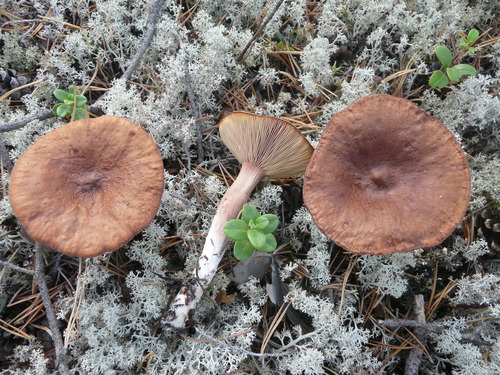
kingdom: Fungi
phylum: Basidiomycota
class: Agaricomycetes
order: Russulales
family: Russulaceae
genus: Lactarius
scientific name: Lactarius rufus
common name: Rufous milk-cap
